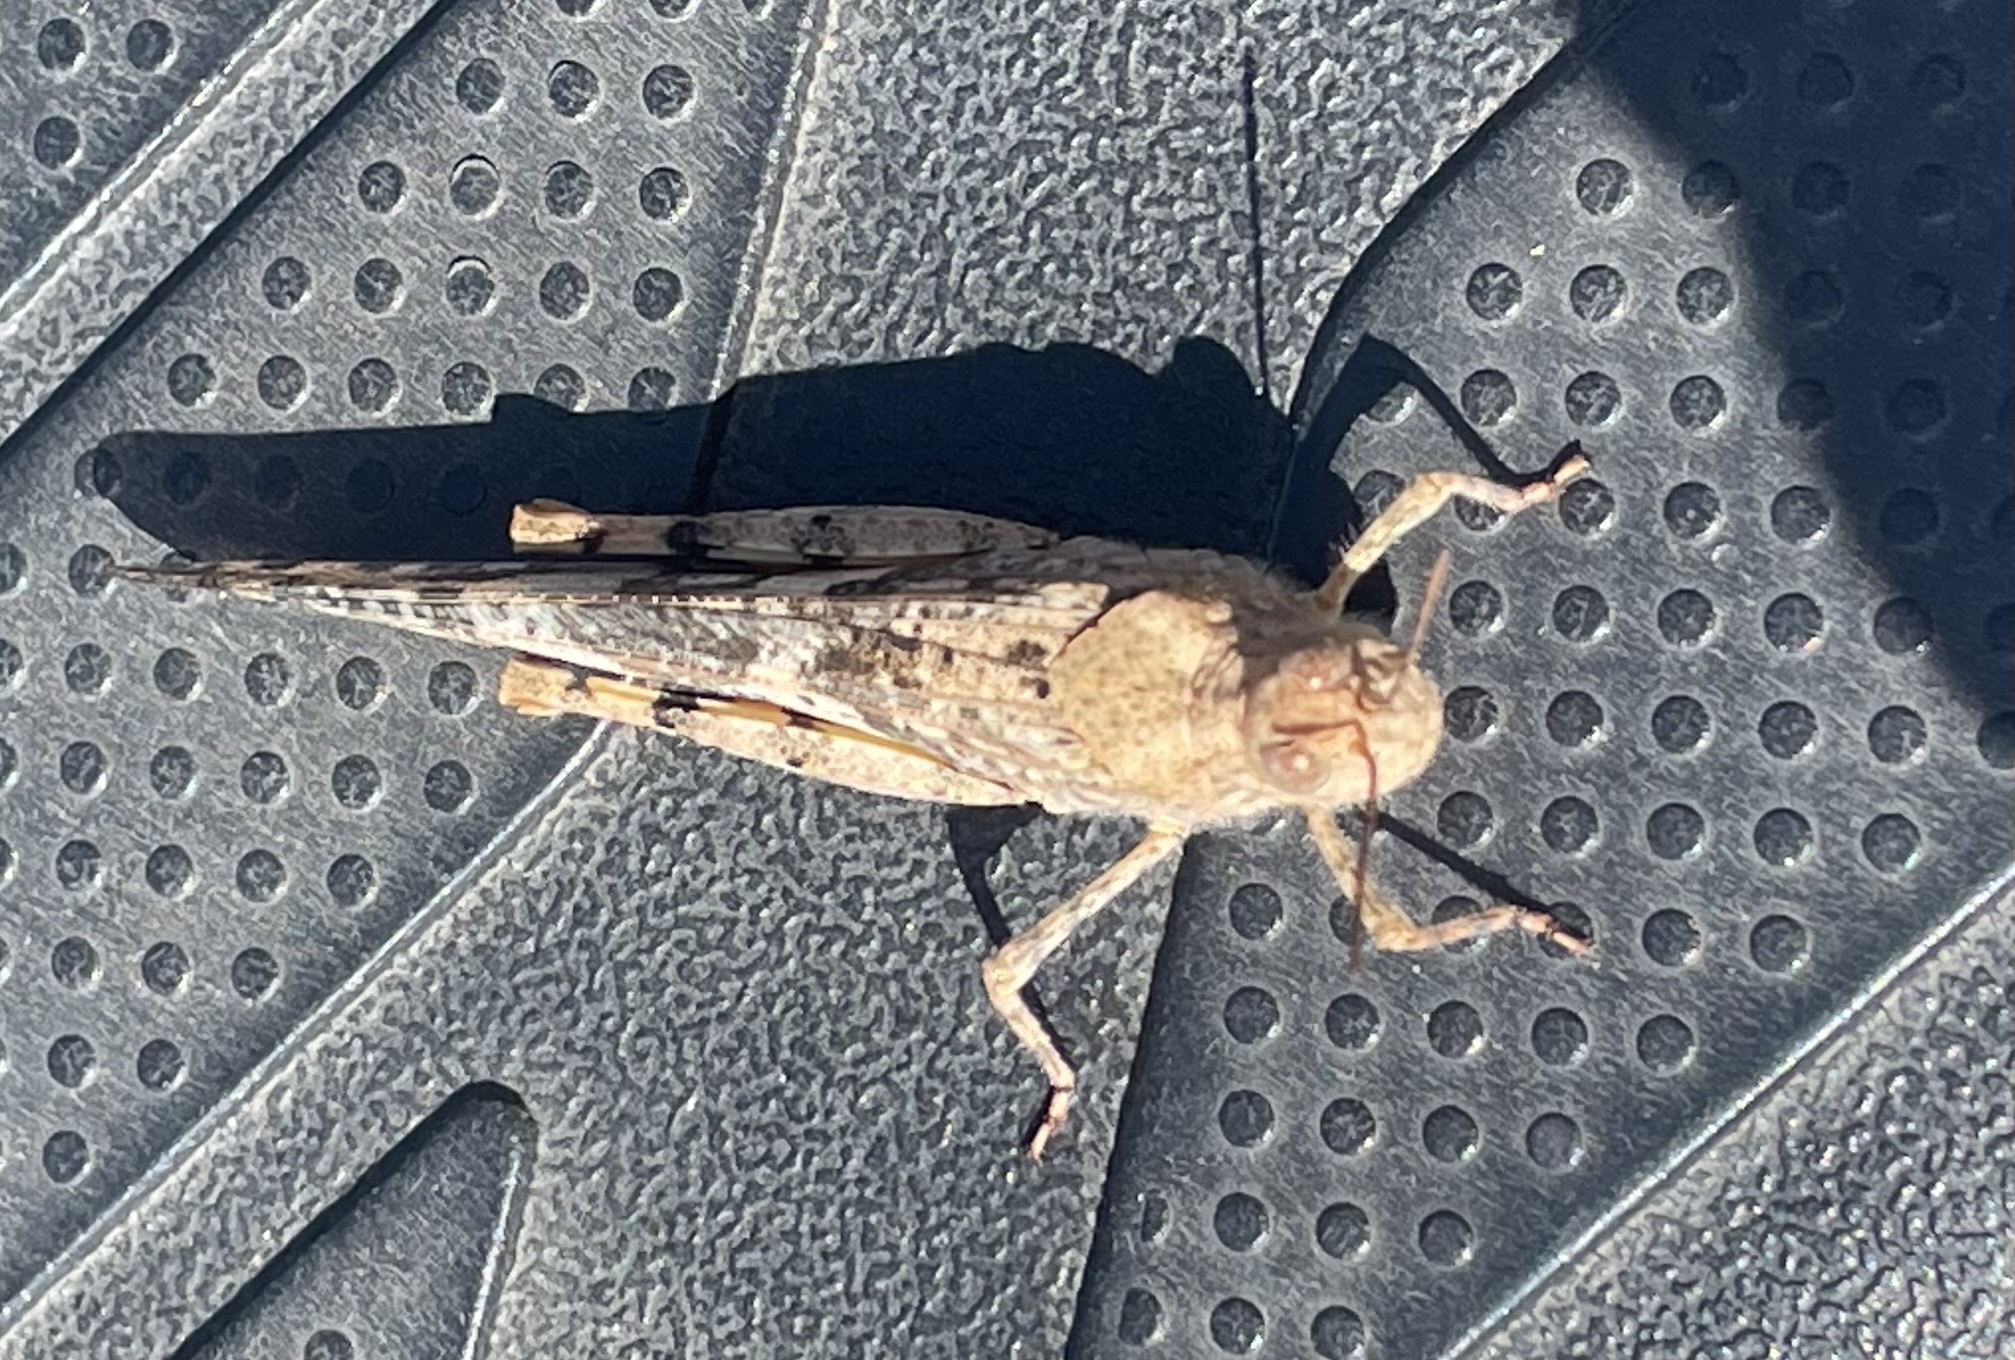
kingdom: Animalia
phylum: Arthropoda
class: Insecta
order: Orthoptera
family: Acrididae
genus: Trimerotropis
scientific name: Trimerotropis pallidipennis
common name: Pallid-winged grasshopper
